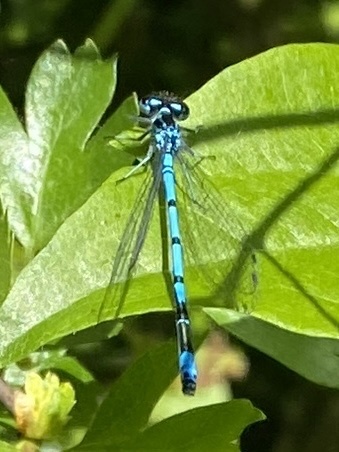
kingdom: Animalia
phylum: Arthropoda
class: Insecta
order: Odonata
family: Coenagrionidae
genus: Coenagrion
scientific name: Coenagrion puella
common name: Azure damselfly
